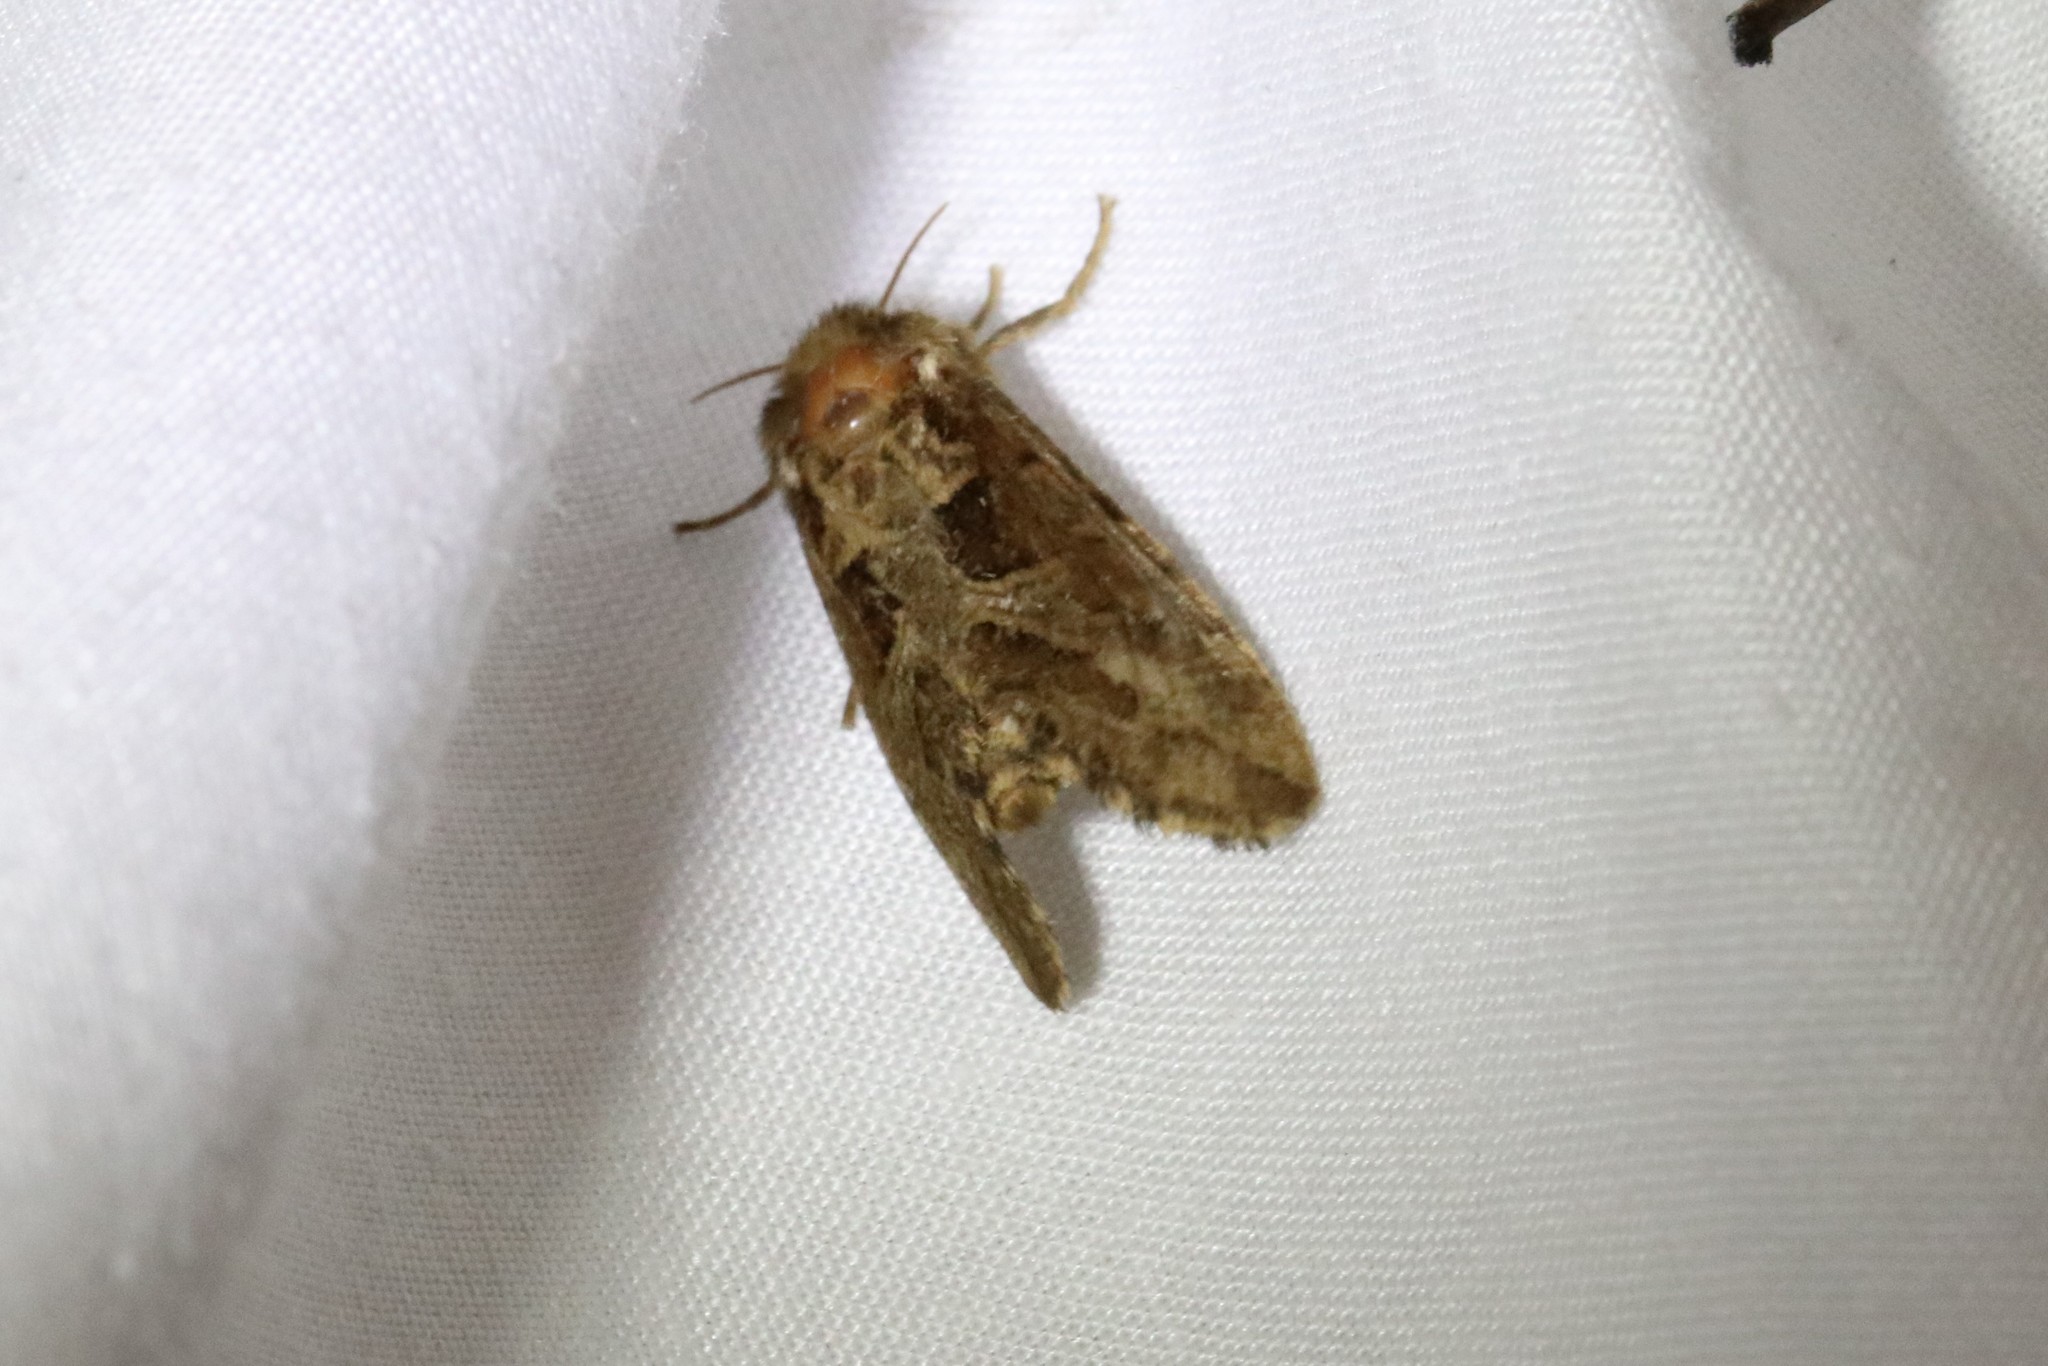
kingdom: Animalia
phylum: Arthropoda
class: Insecta
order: Lepidoptera
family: Noctuidae
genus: Phlogophora
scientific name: Phlogophora periculosa
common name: Brown angle shades
